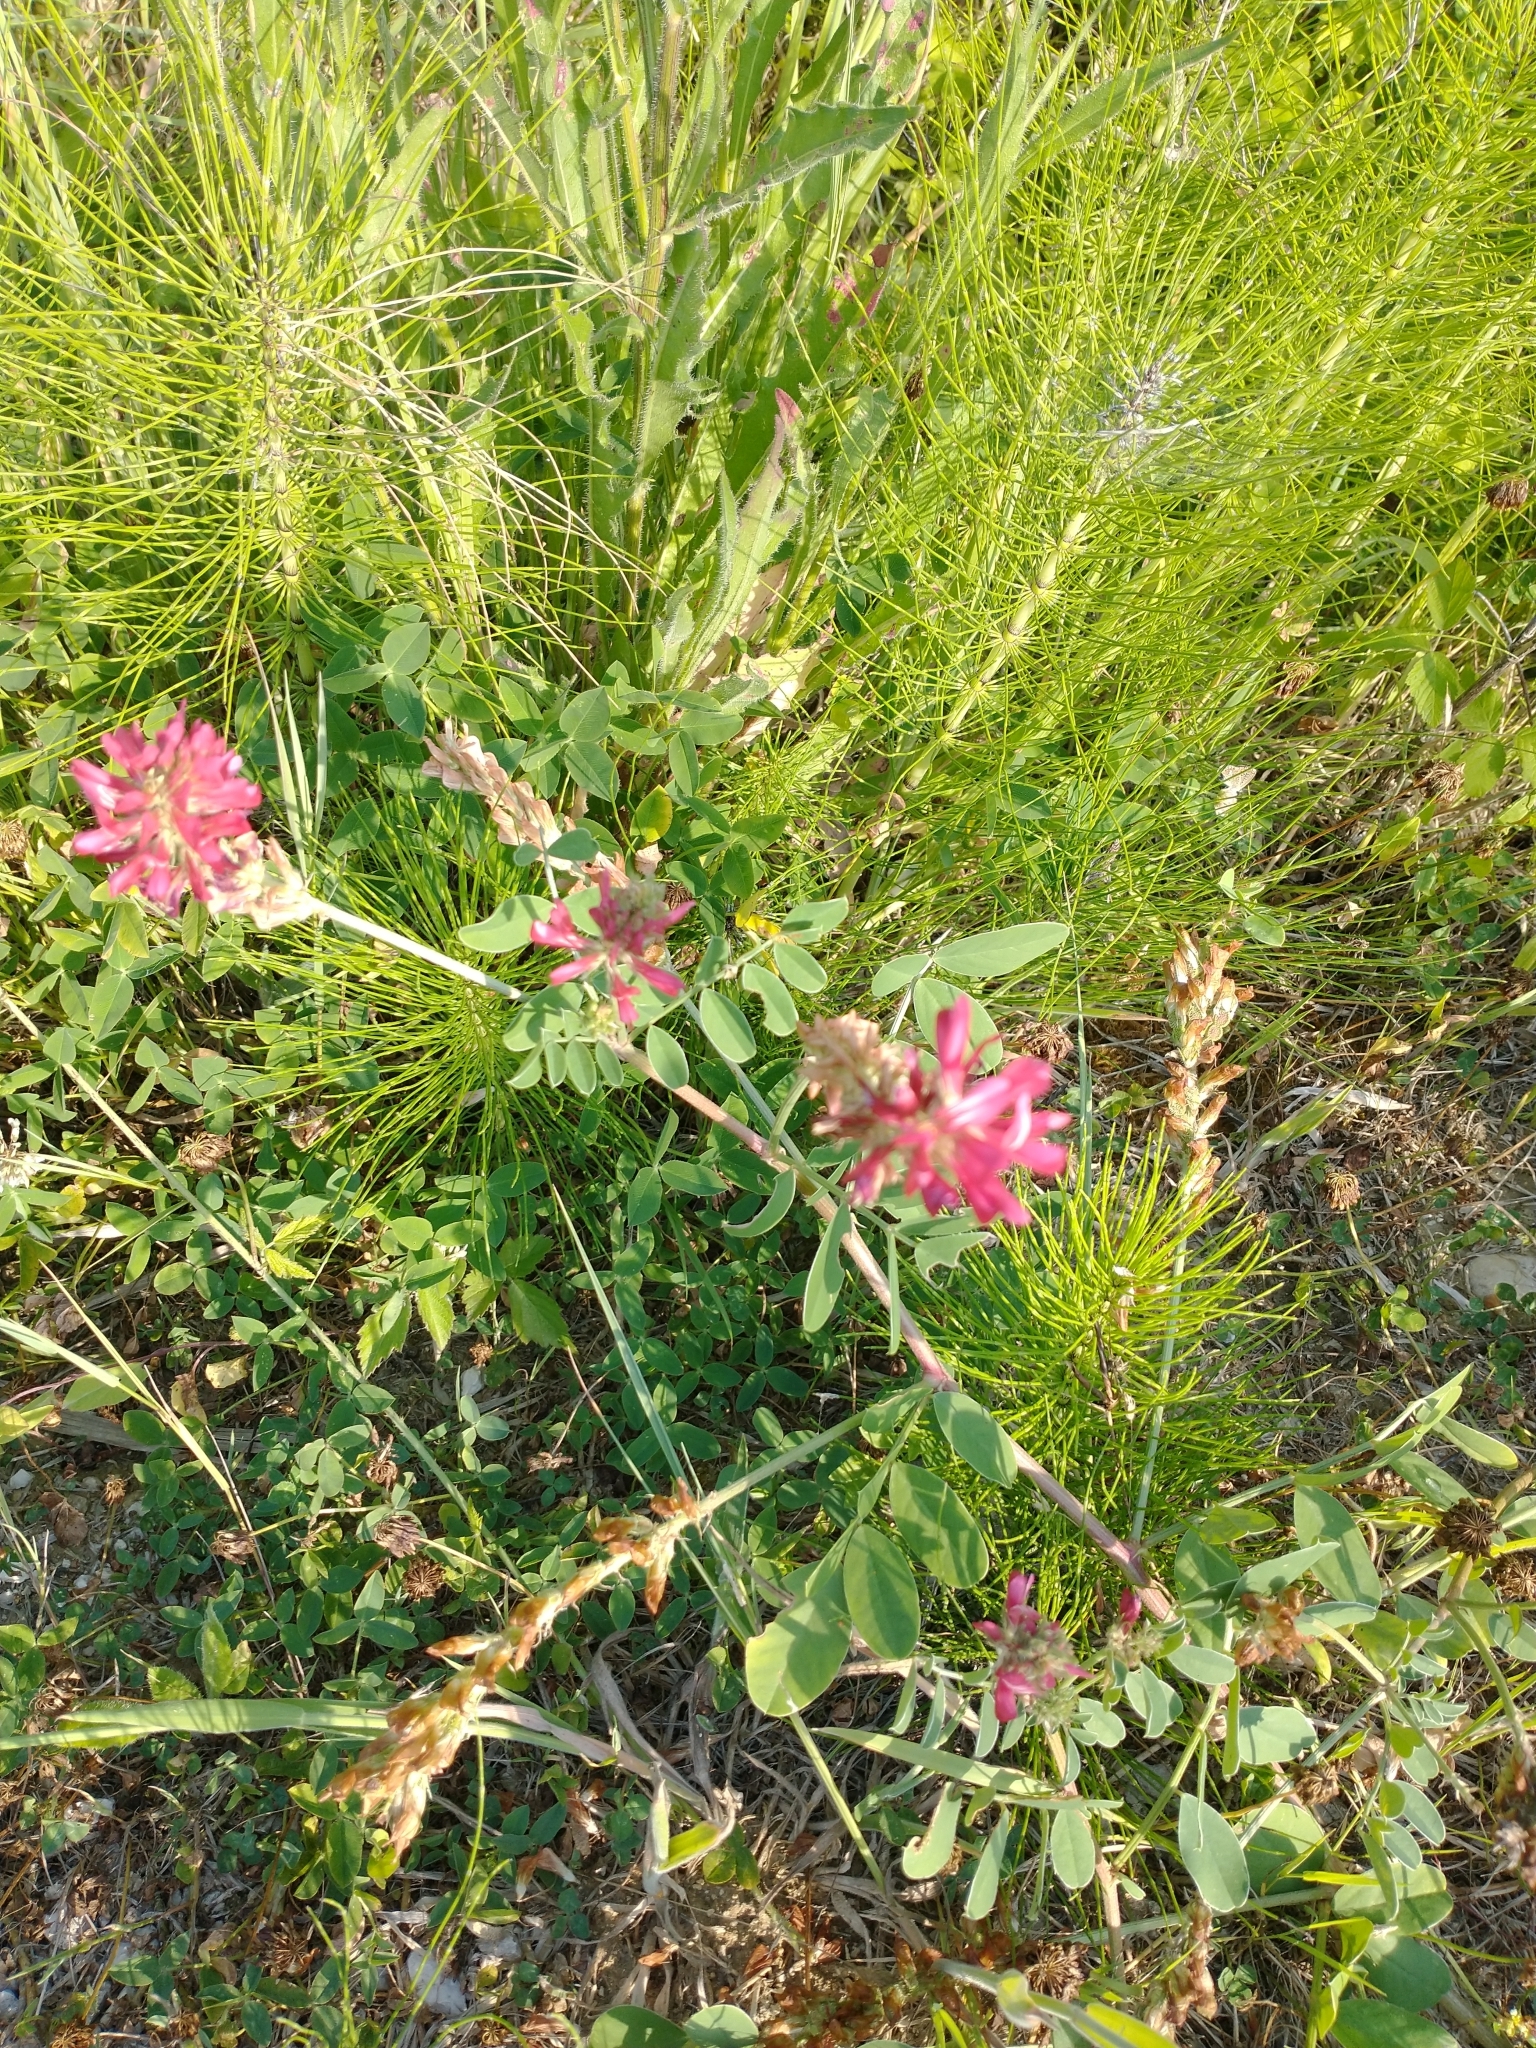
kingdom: Plantae
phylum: Tracheophyta
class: Magnoliopsida
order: Fabales
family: Fabaceae
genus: Sulla
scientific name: Sulla coronaria
